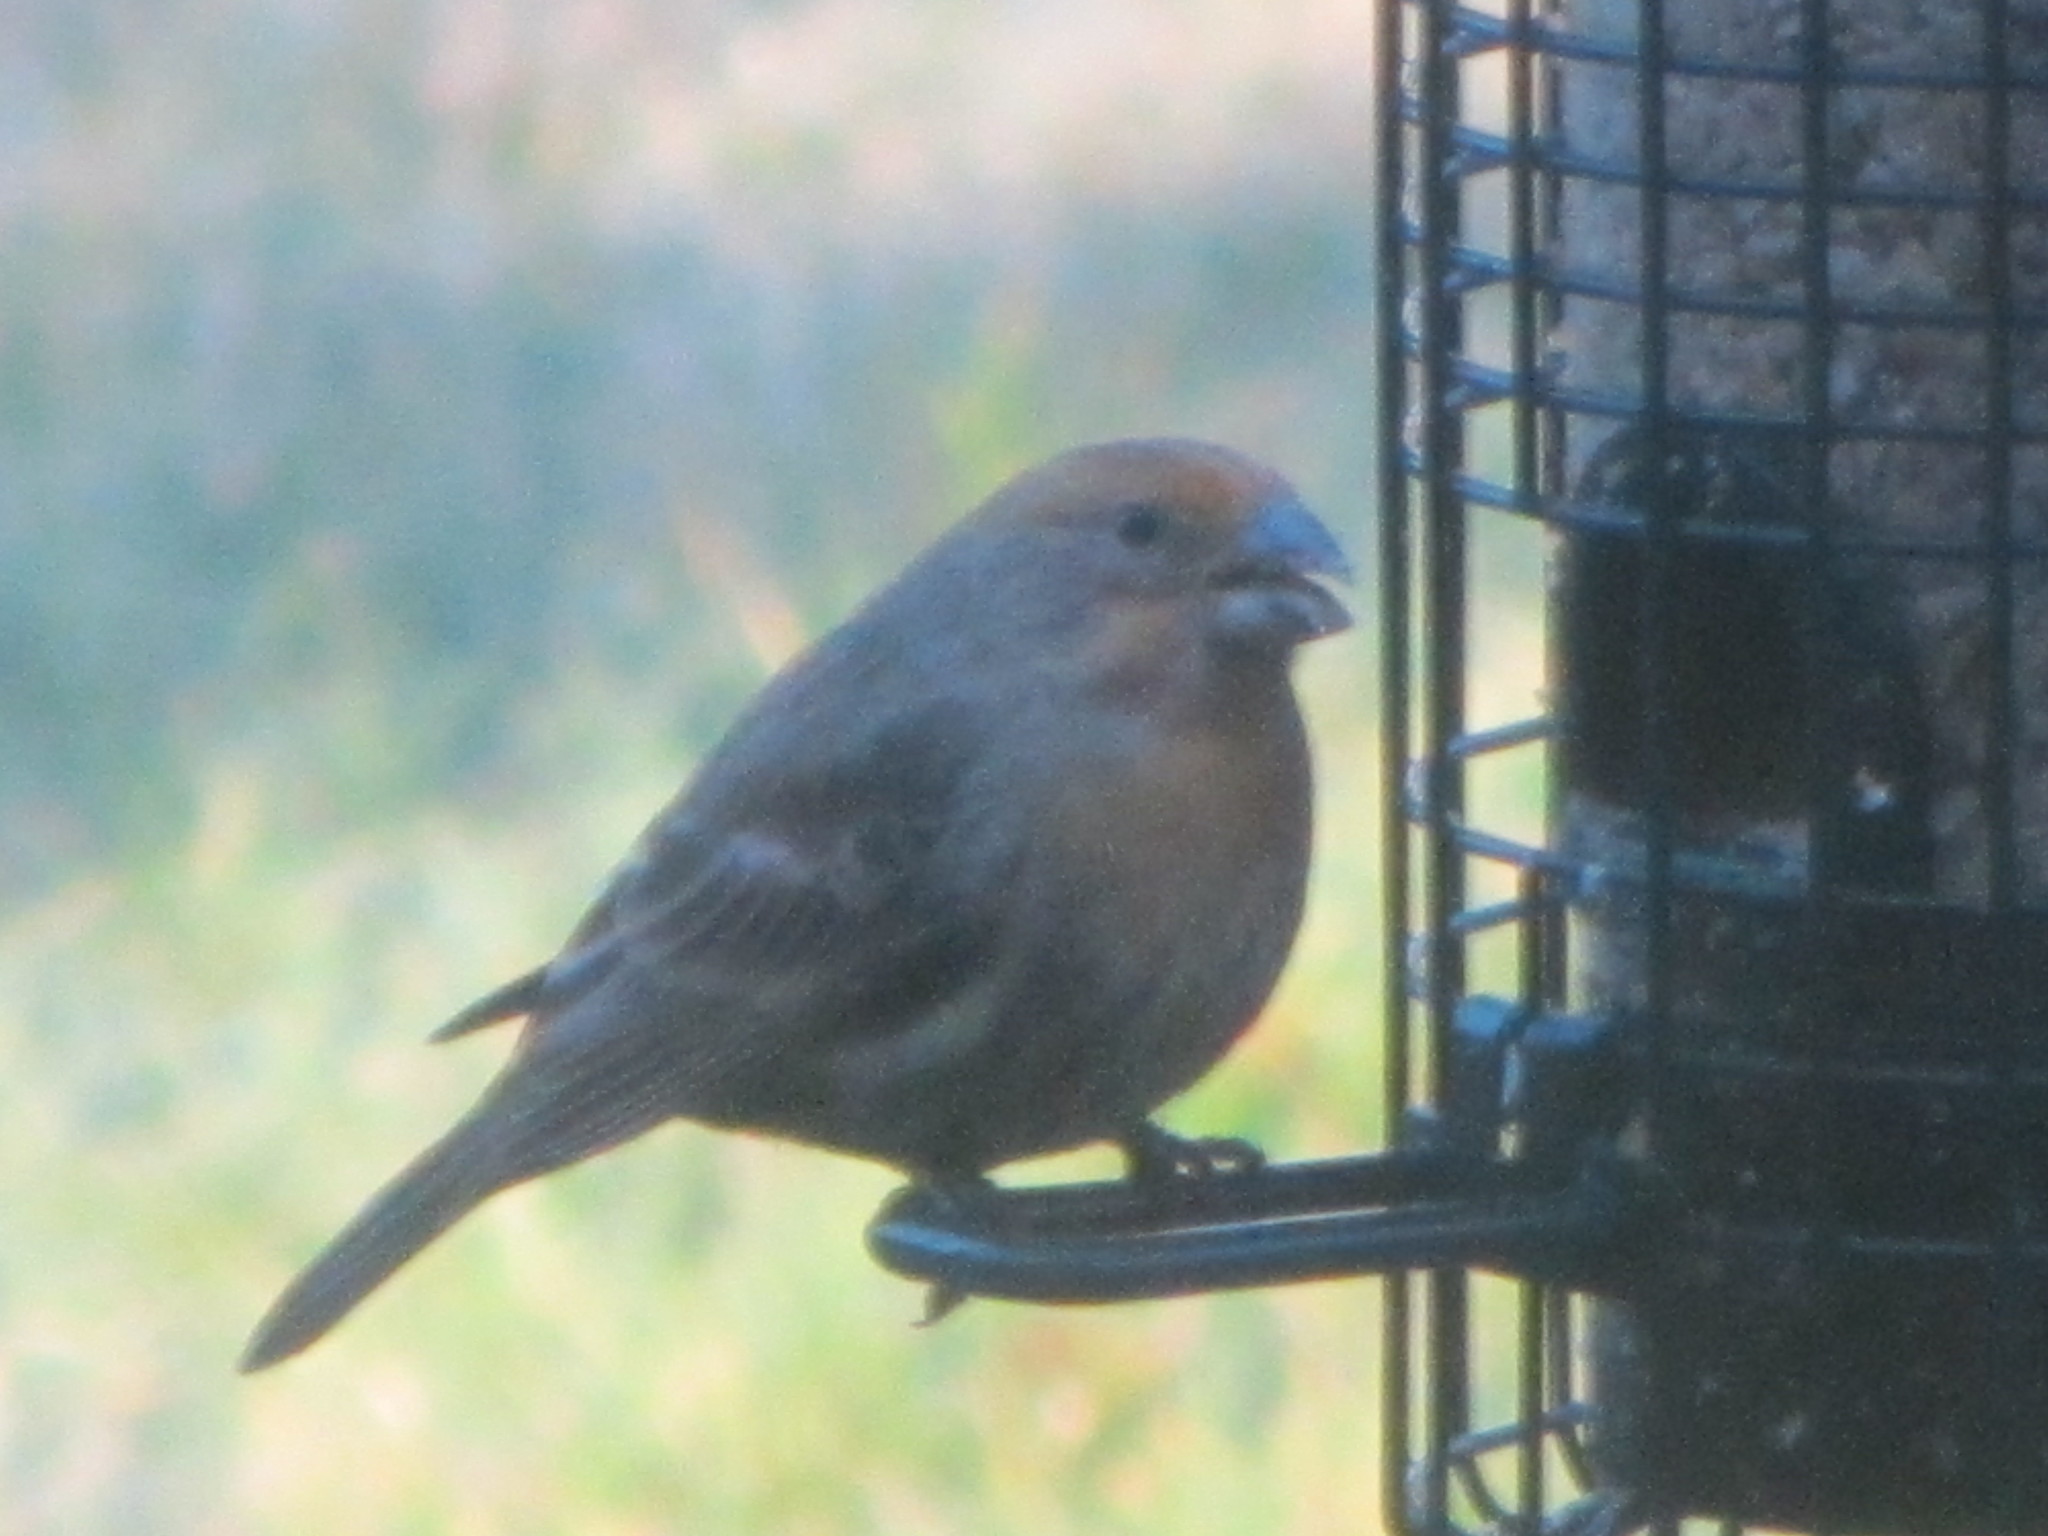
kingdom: Animalia
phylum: Chordata
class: Aves
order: Passeriformes
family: Fringillidae
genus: Haemorhous
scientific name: Haemorhous mexicanus
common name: House finch
